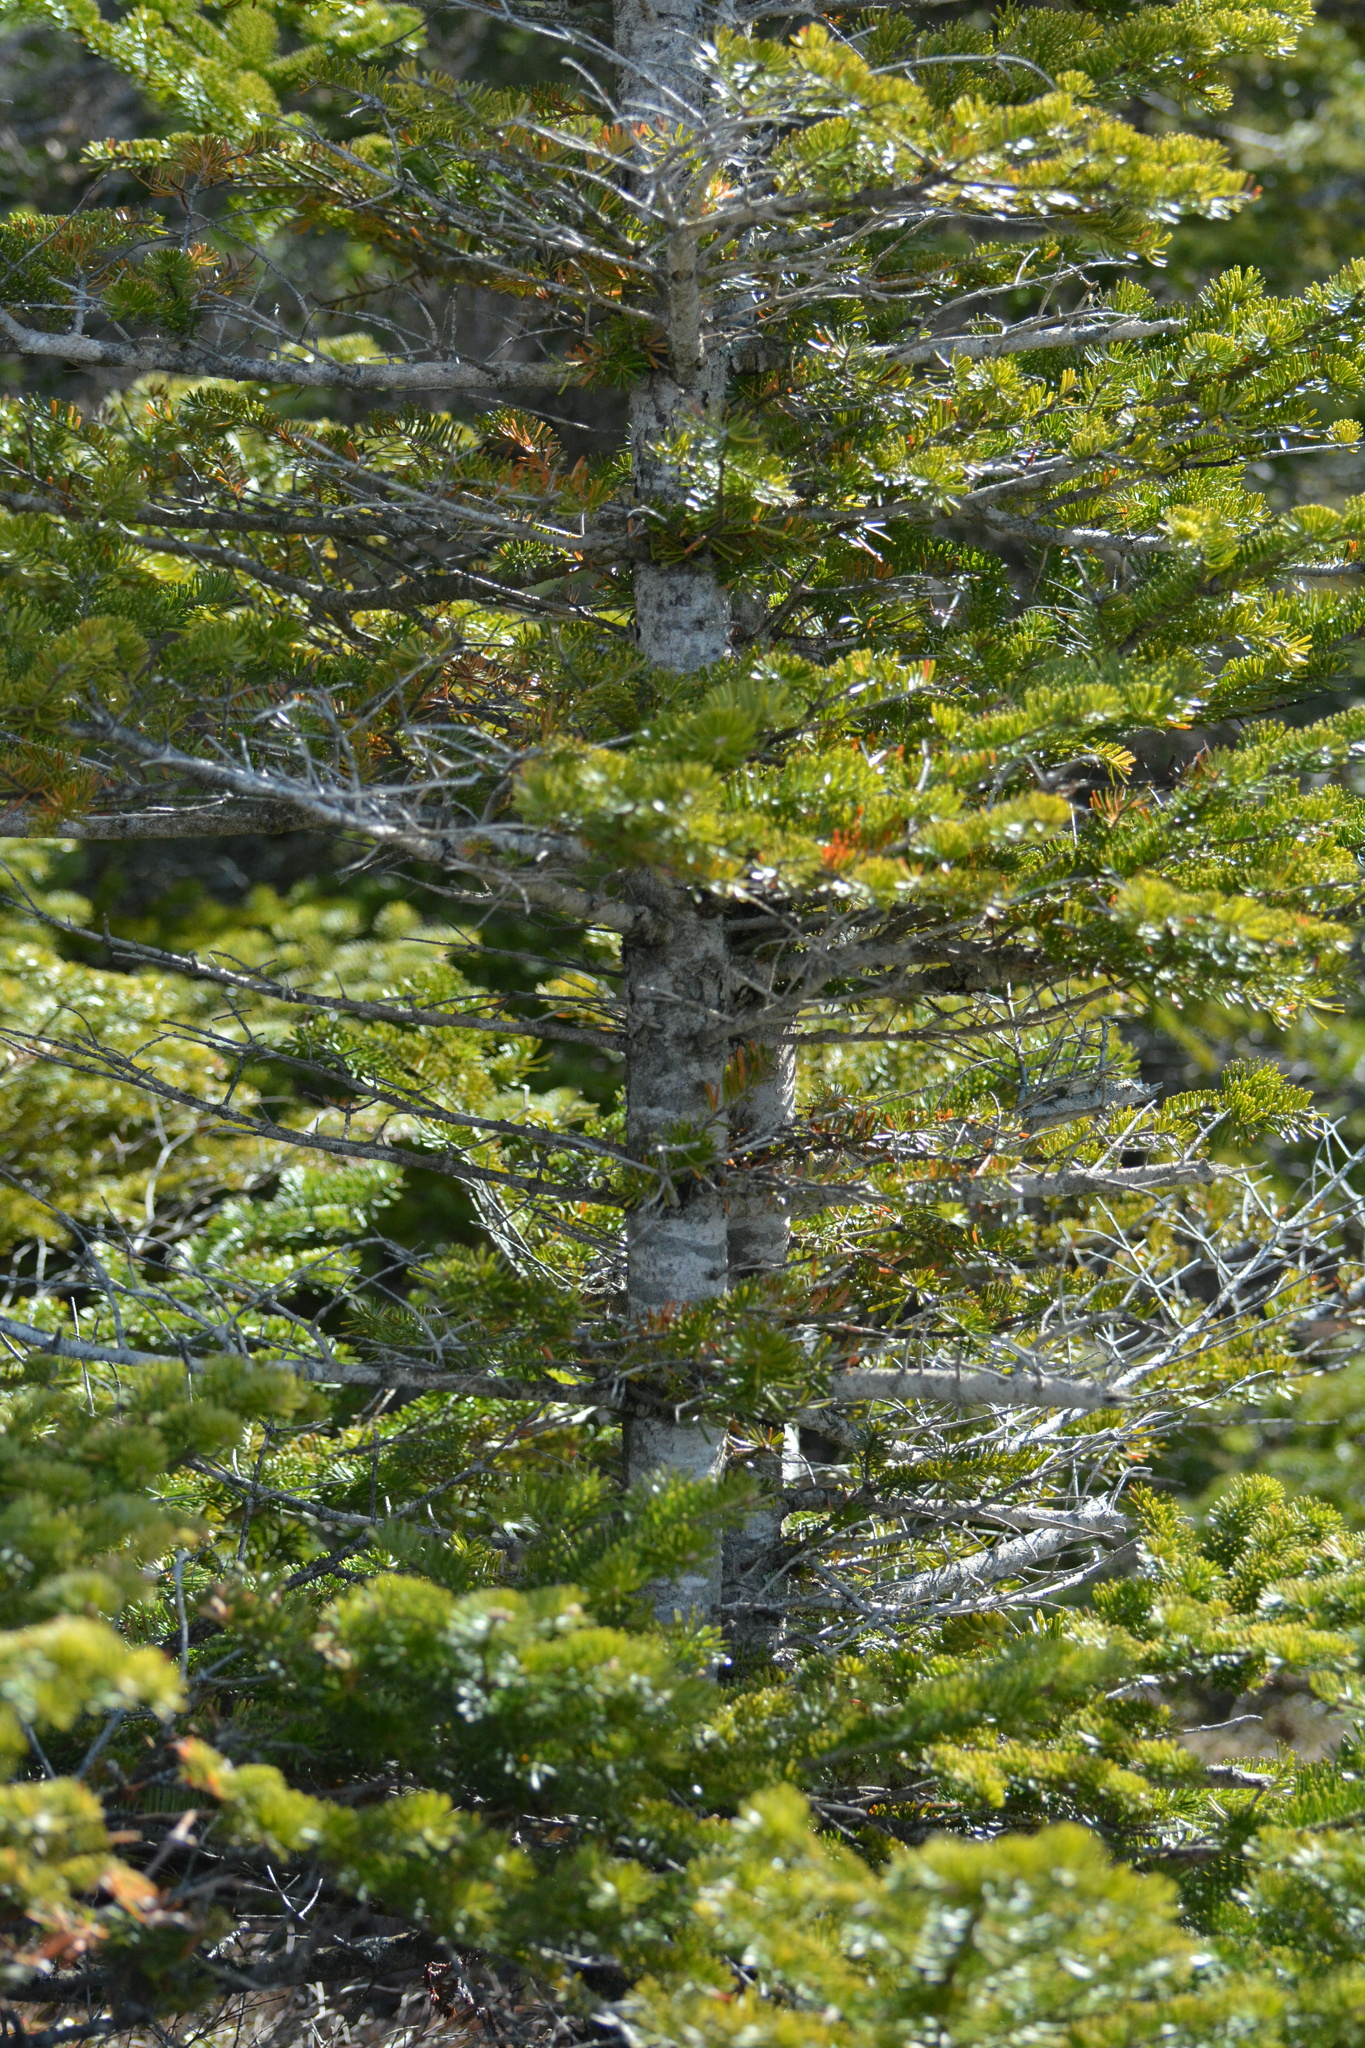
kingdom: Plantae
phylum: Tracheophyta
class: Pinopsida
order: Pinales
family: Pinaceae
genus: Abies
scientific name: Abies balsamea
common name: Balsam fir
